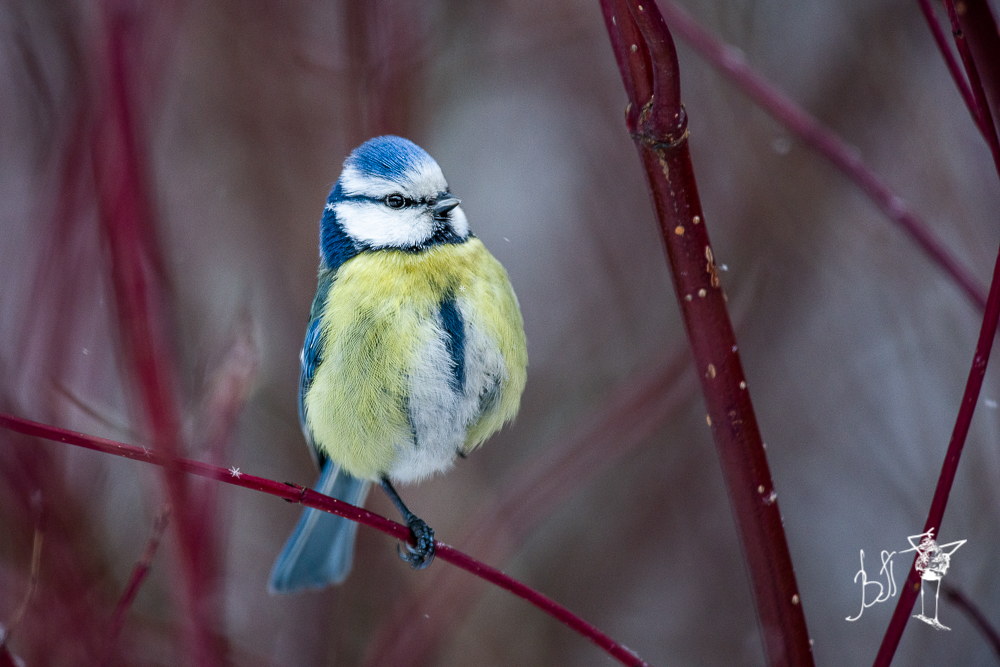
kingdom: Animalia
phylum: Chordata
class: Aves
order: Passeriformes
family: Paridae
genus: Cyanistes
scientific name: Cyanistes caeruleus
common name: Eurasian blue tit
